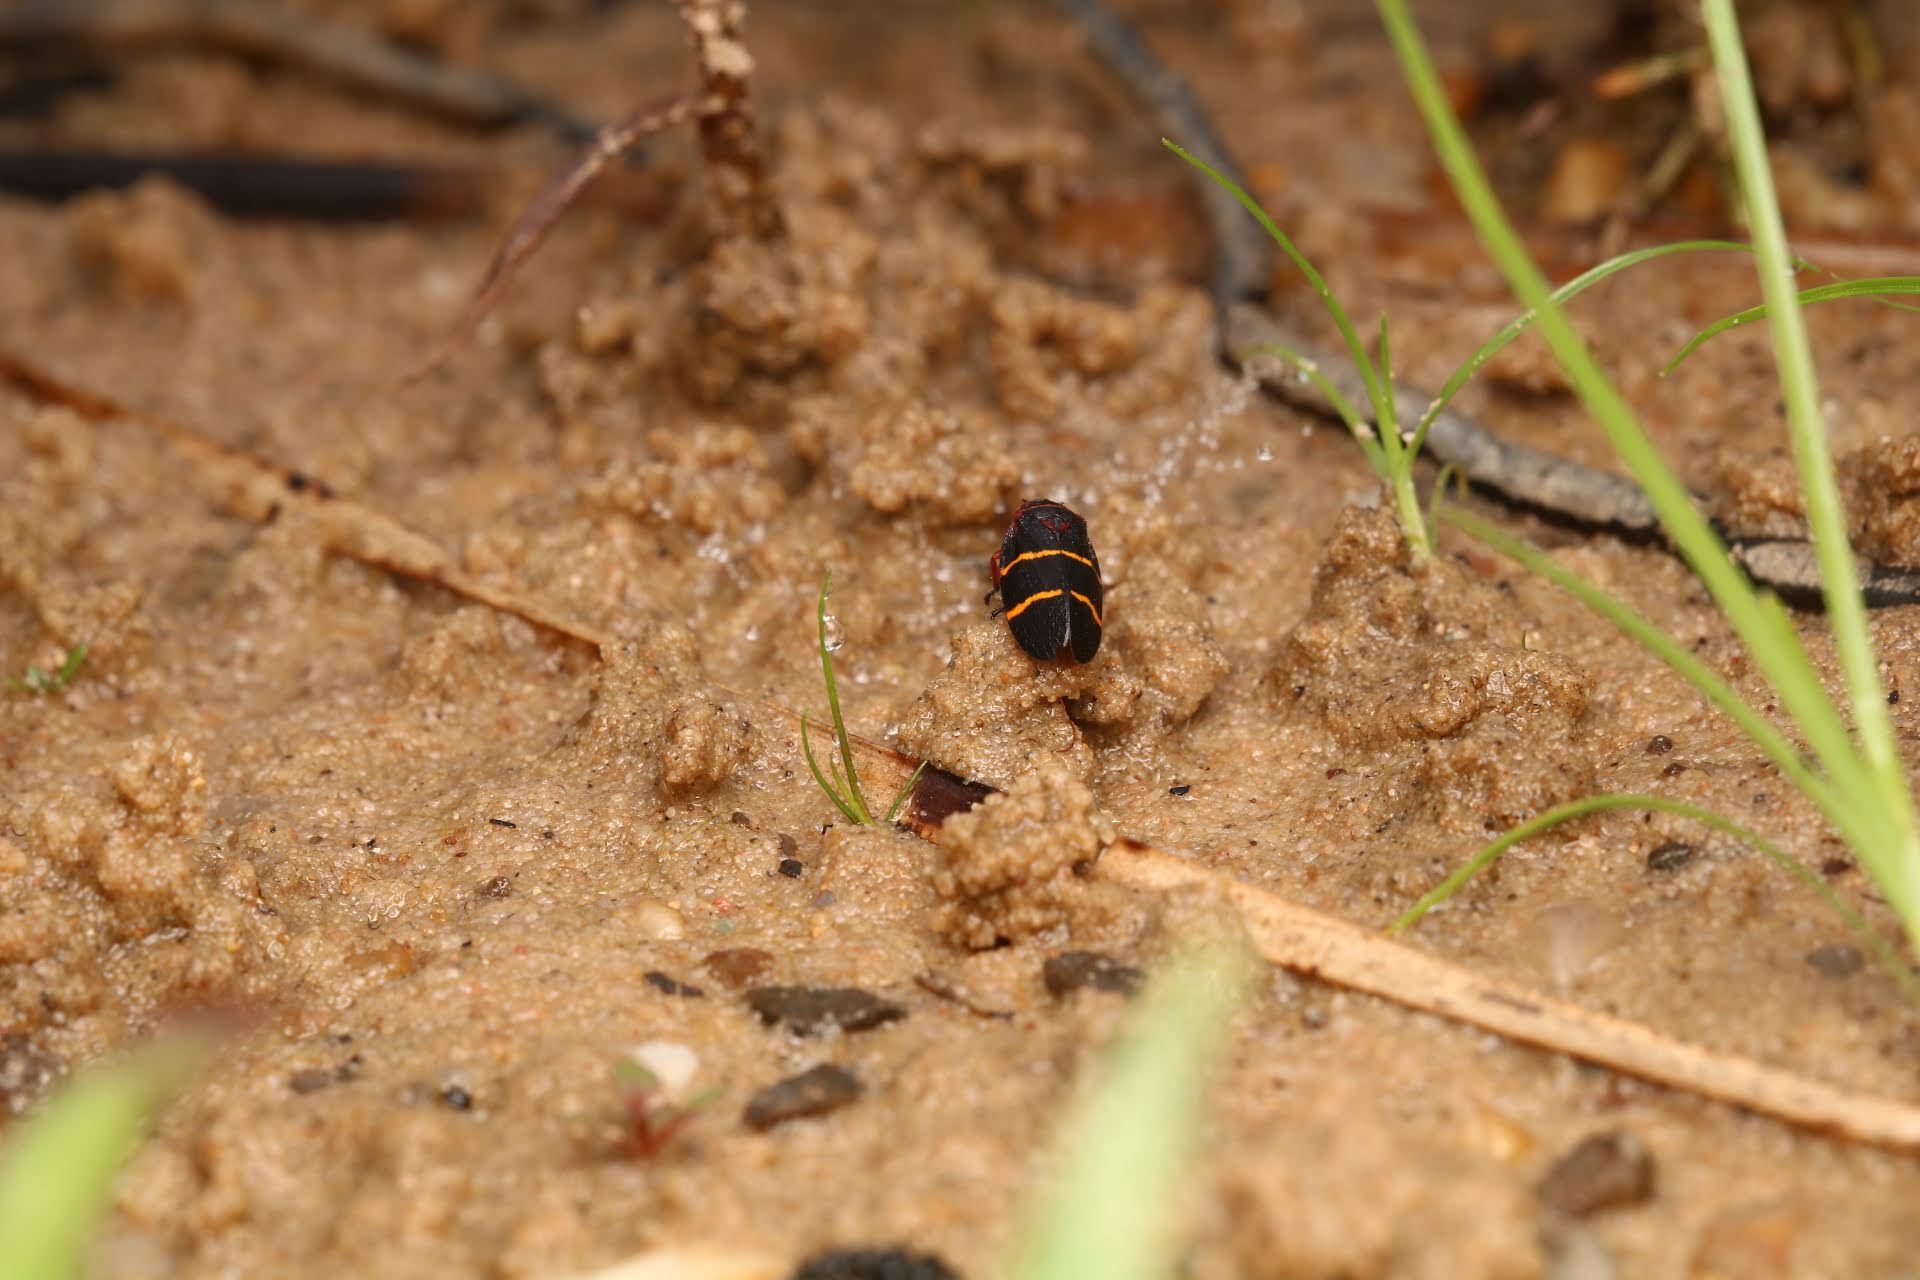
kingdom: Animalia
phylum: Arthropoda
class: Insecta
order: Hemiptera
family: Cercopidae
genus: Prosapia
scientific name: Prosapia bicincta
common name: Twolined spittlebug
